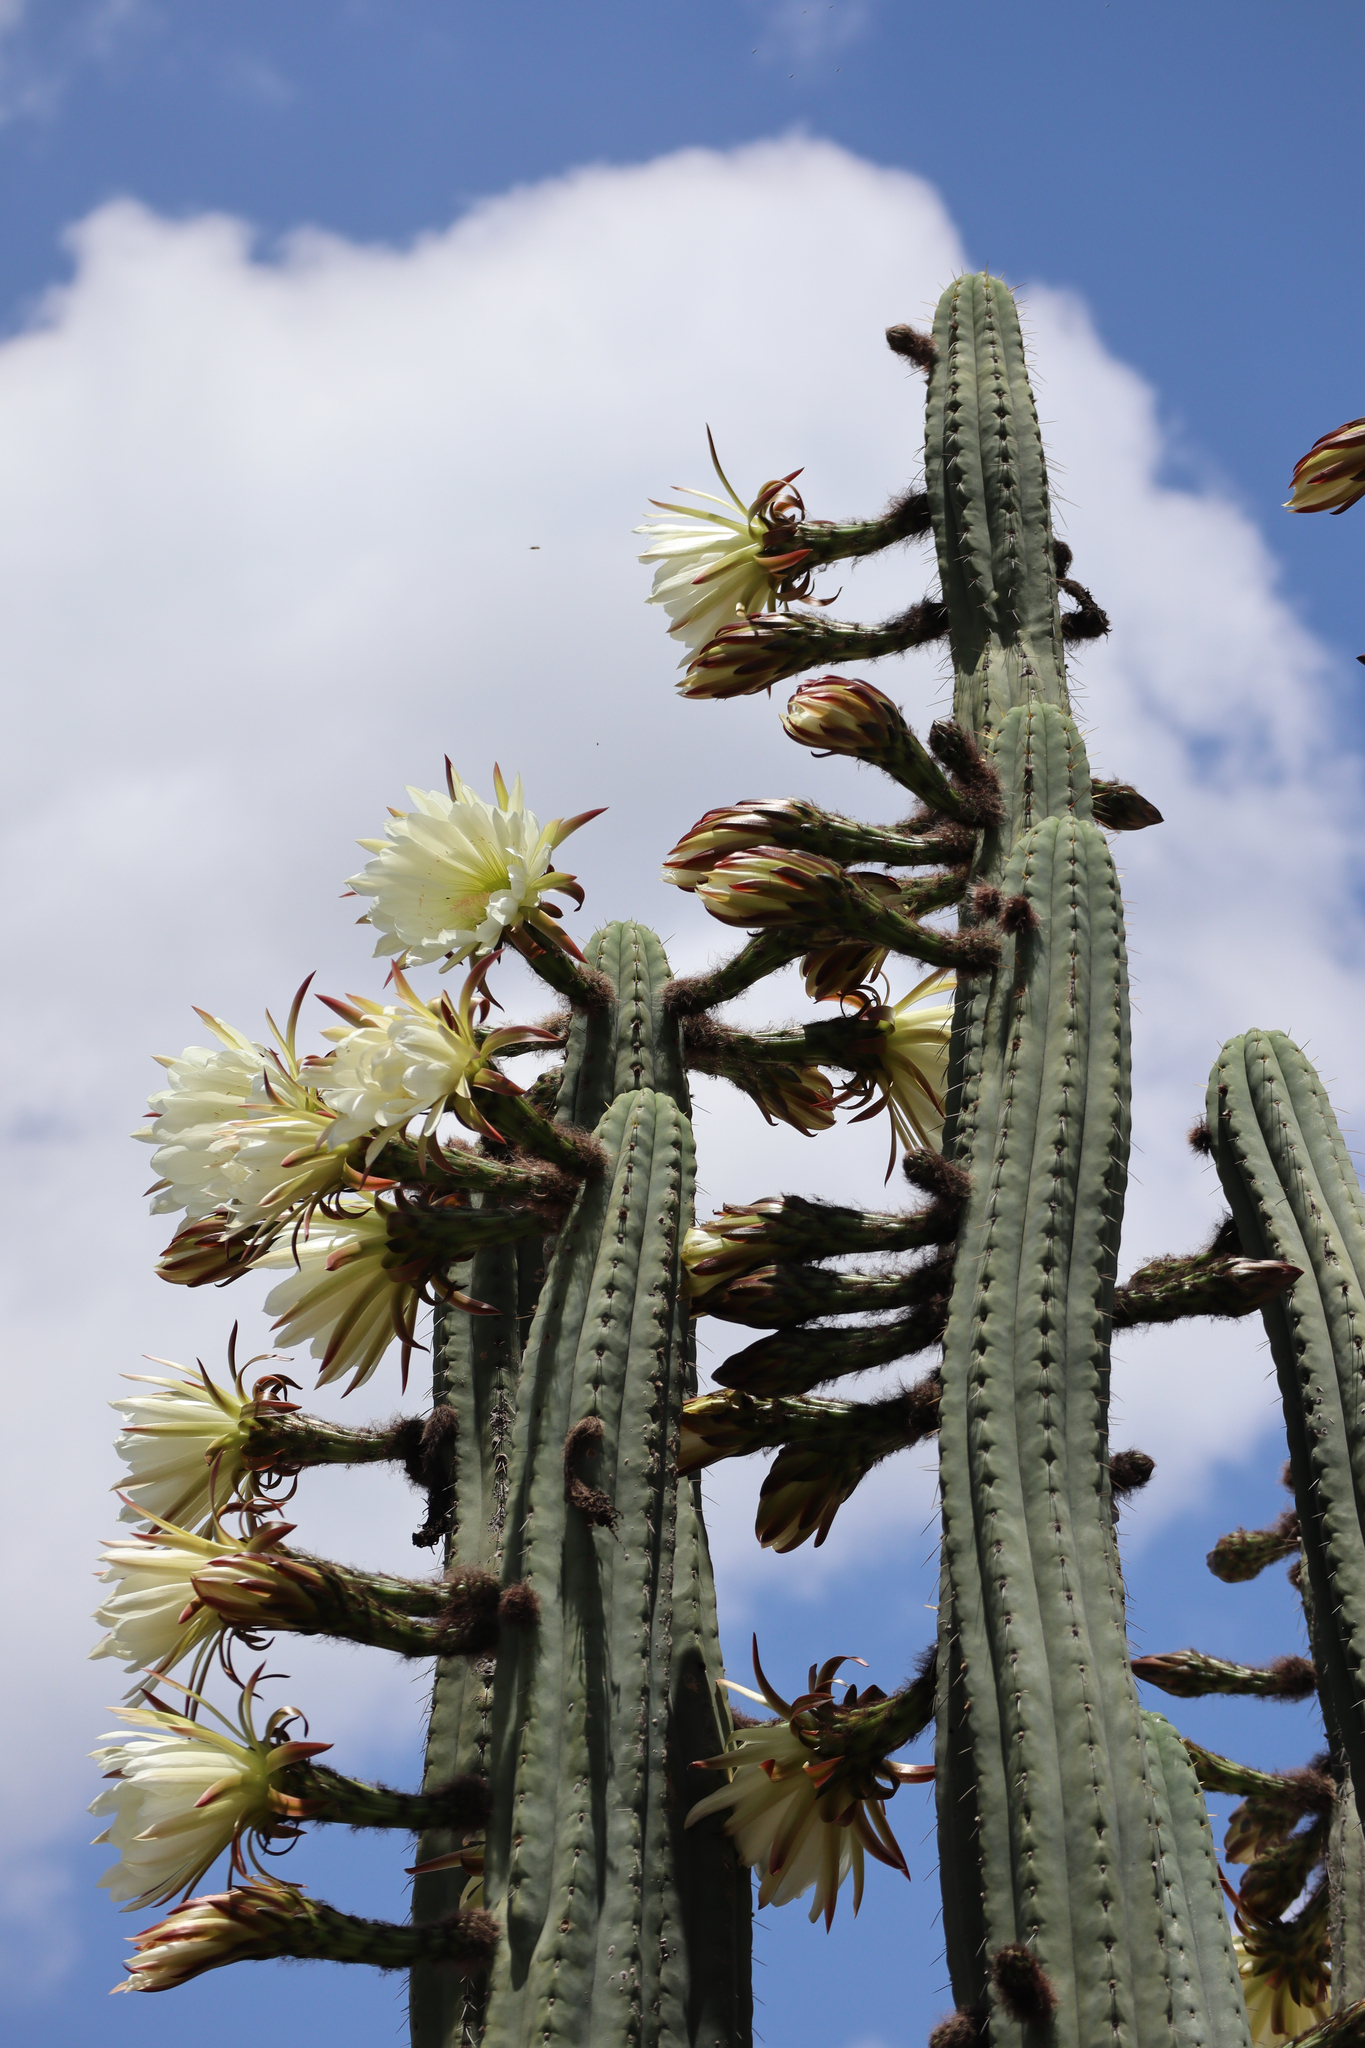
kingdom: Plantae
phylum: Tracheophyta
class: Magnoliopsida
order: Caryophyllales
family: Cactaceae
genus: Trichocereus
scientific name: Trichocereus macrogonus
